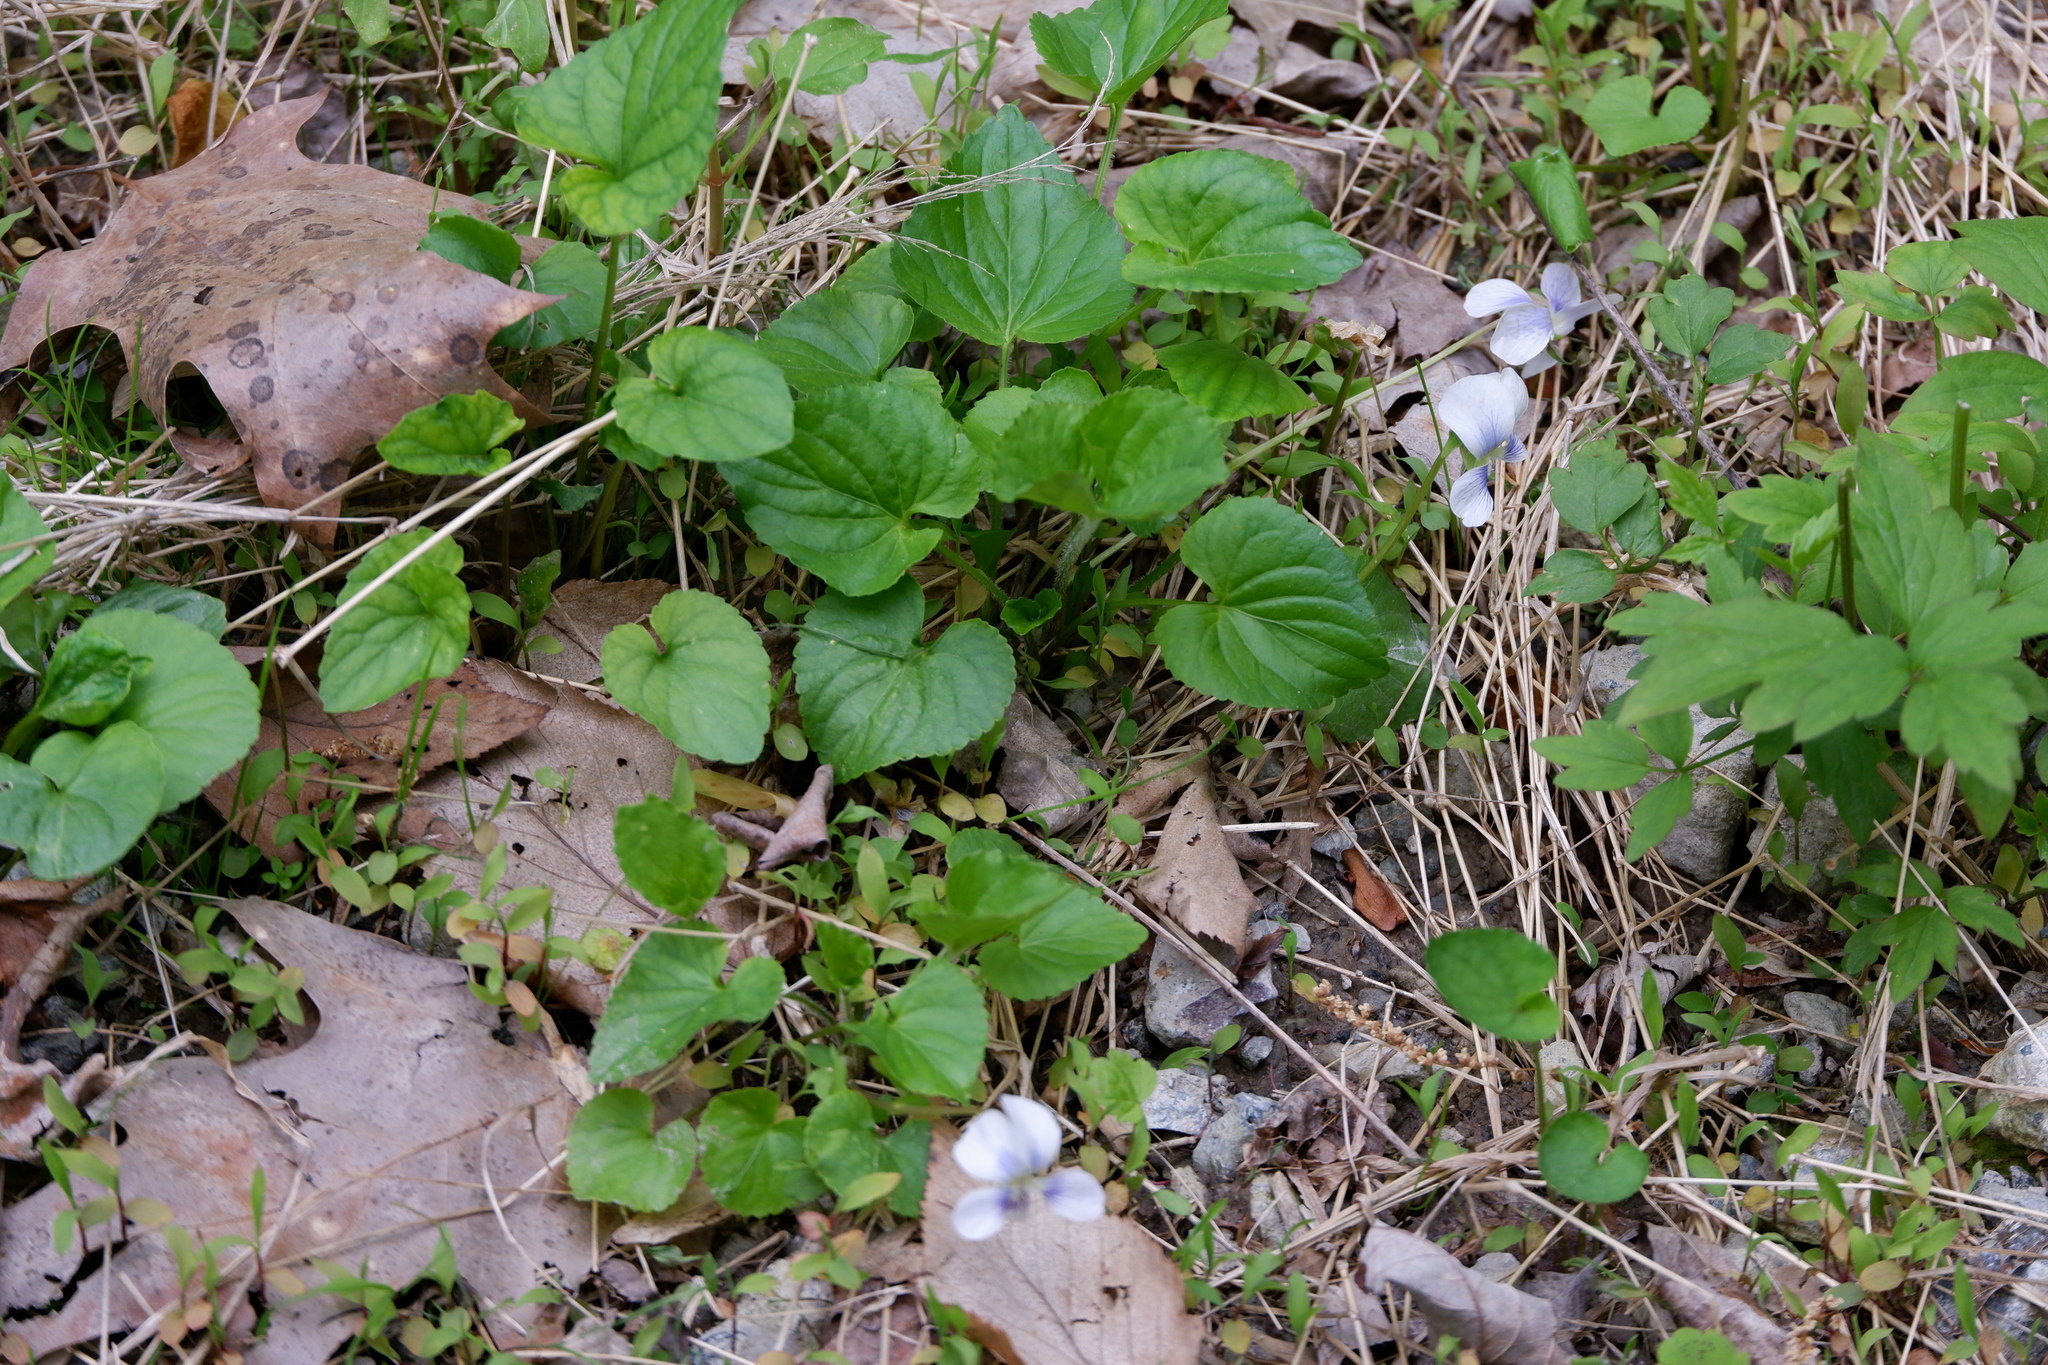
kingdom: Plantae
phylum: Tracheophyta
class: Magnoliopsida
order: Malpighiales
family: Violaceae
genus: Viola
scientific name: Viola sororia
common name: Dooryard violet
